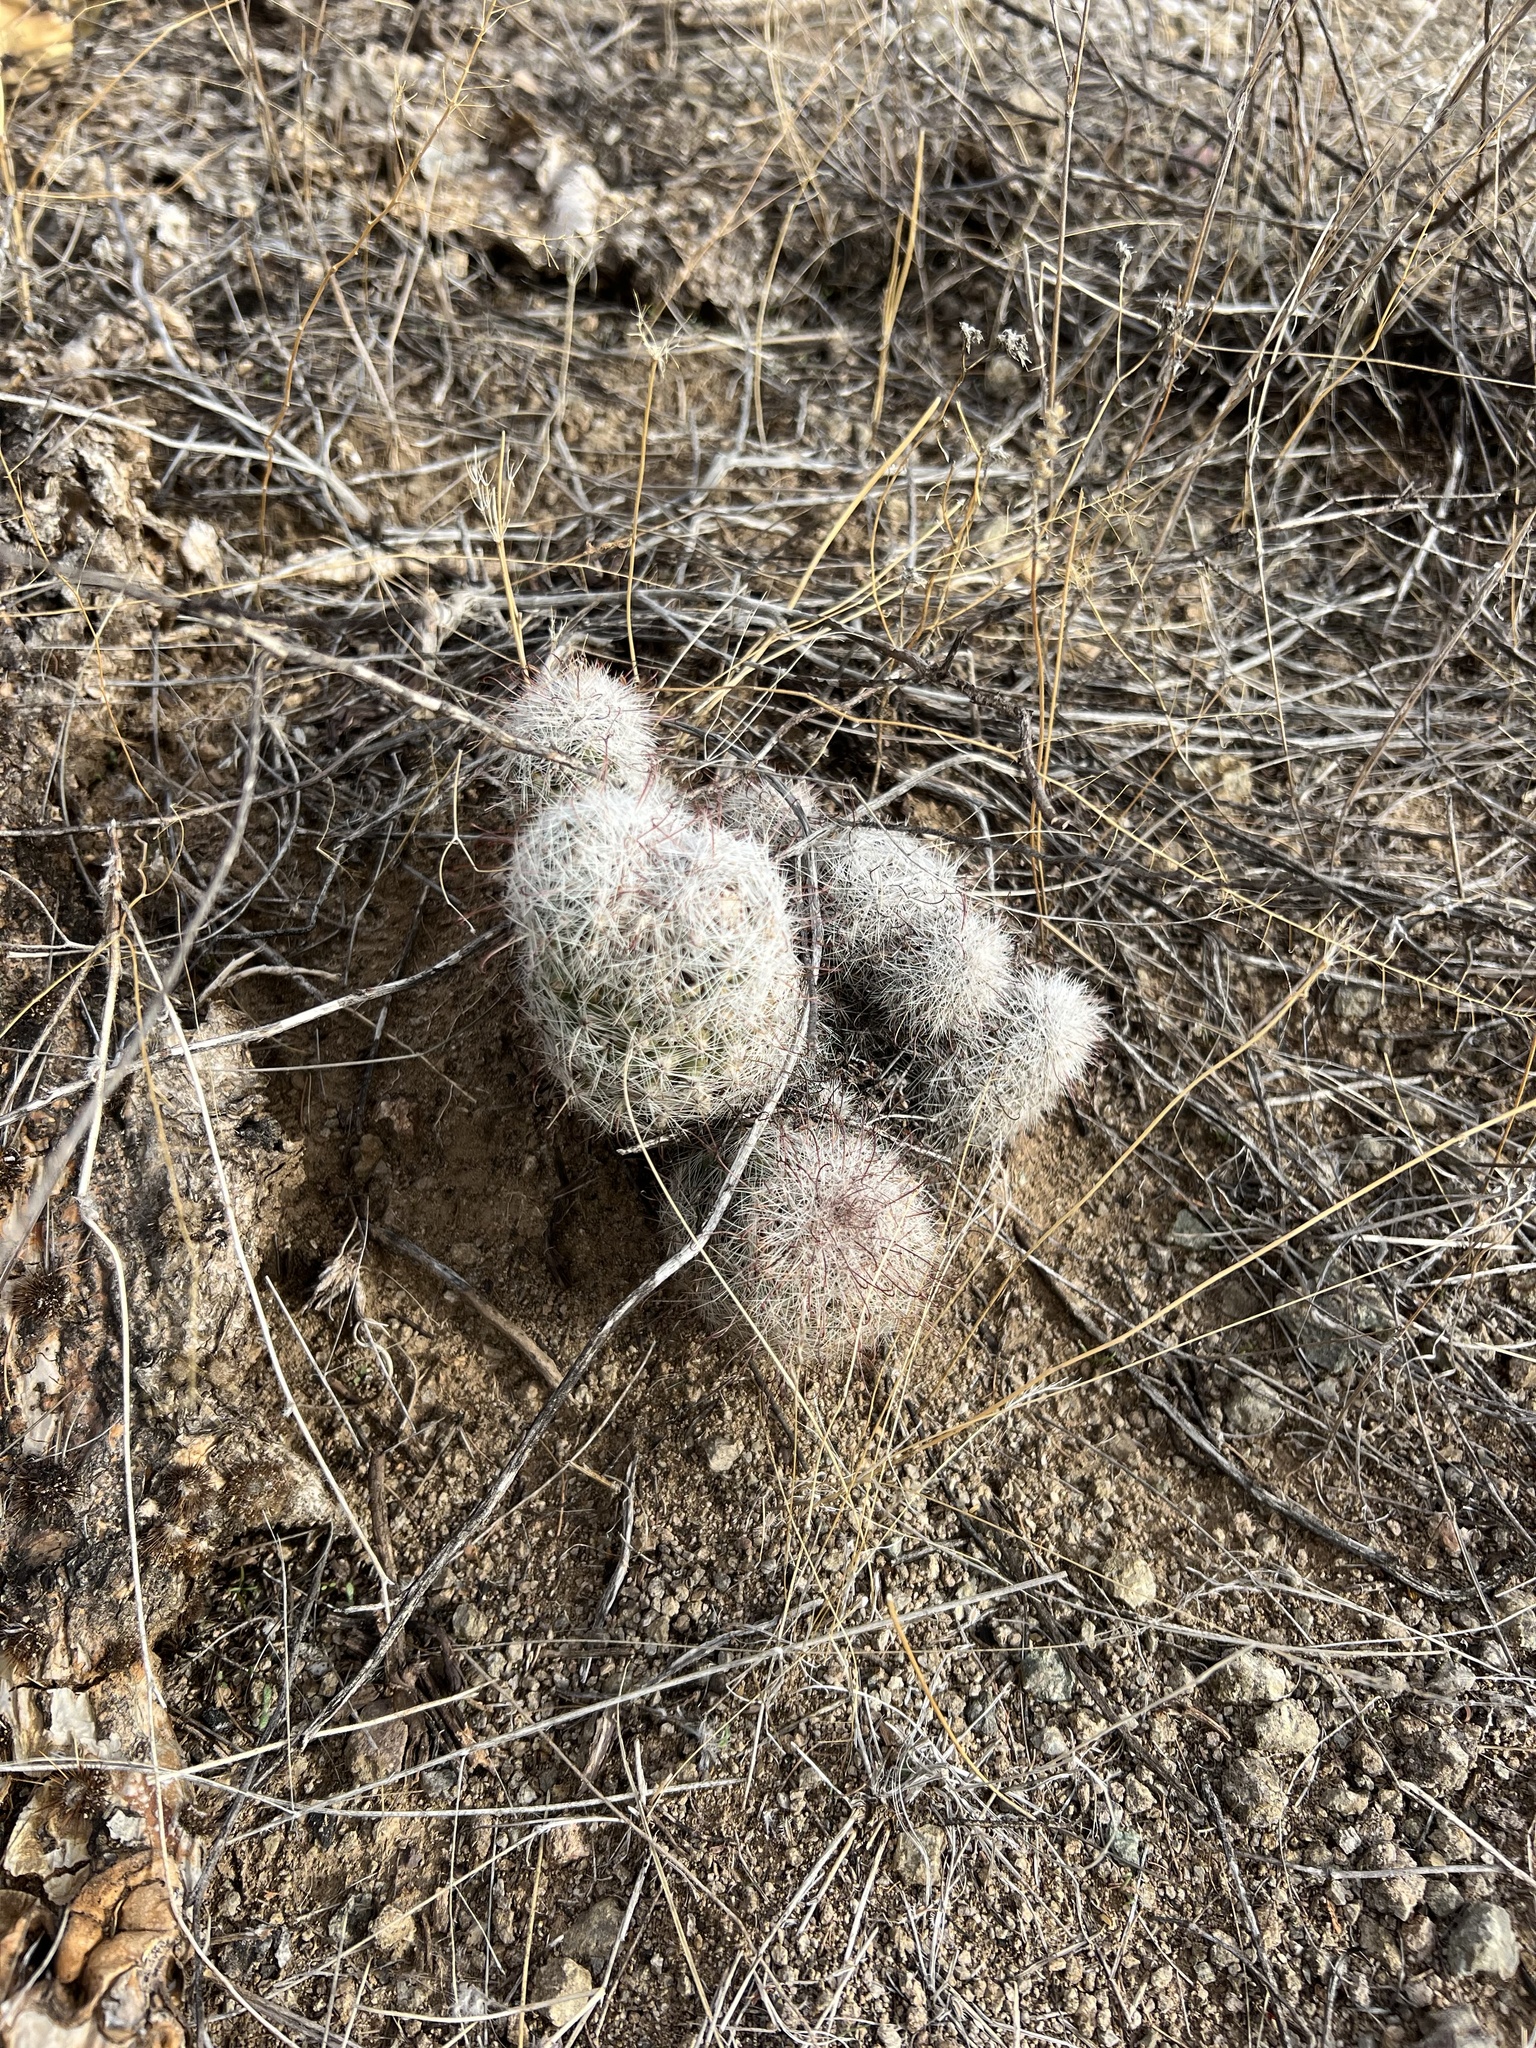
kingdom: Plantae
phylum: Tracheophyta
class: Magnoliopsida
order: Caryophyllales
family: Cactaceae
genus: Cochemiea
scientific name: Cochemiea grahamii
